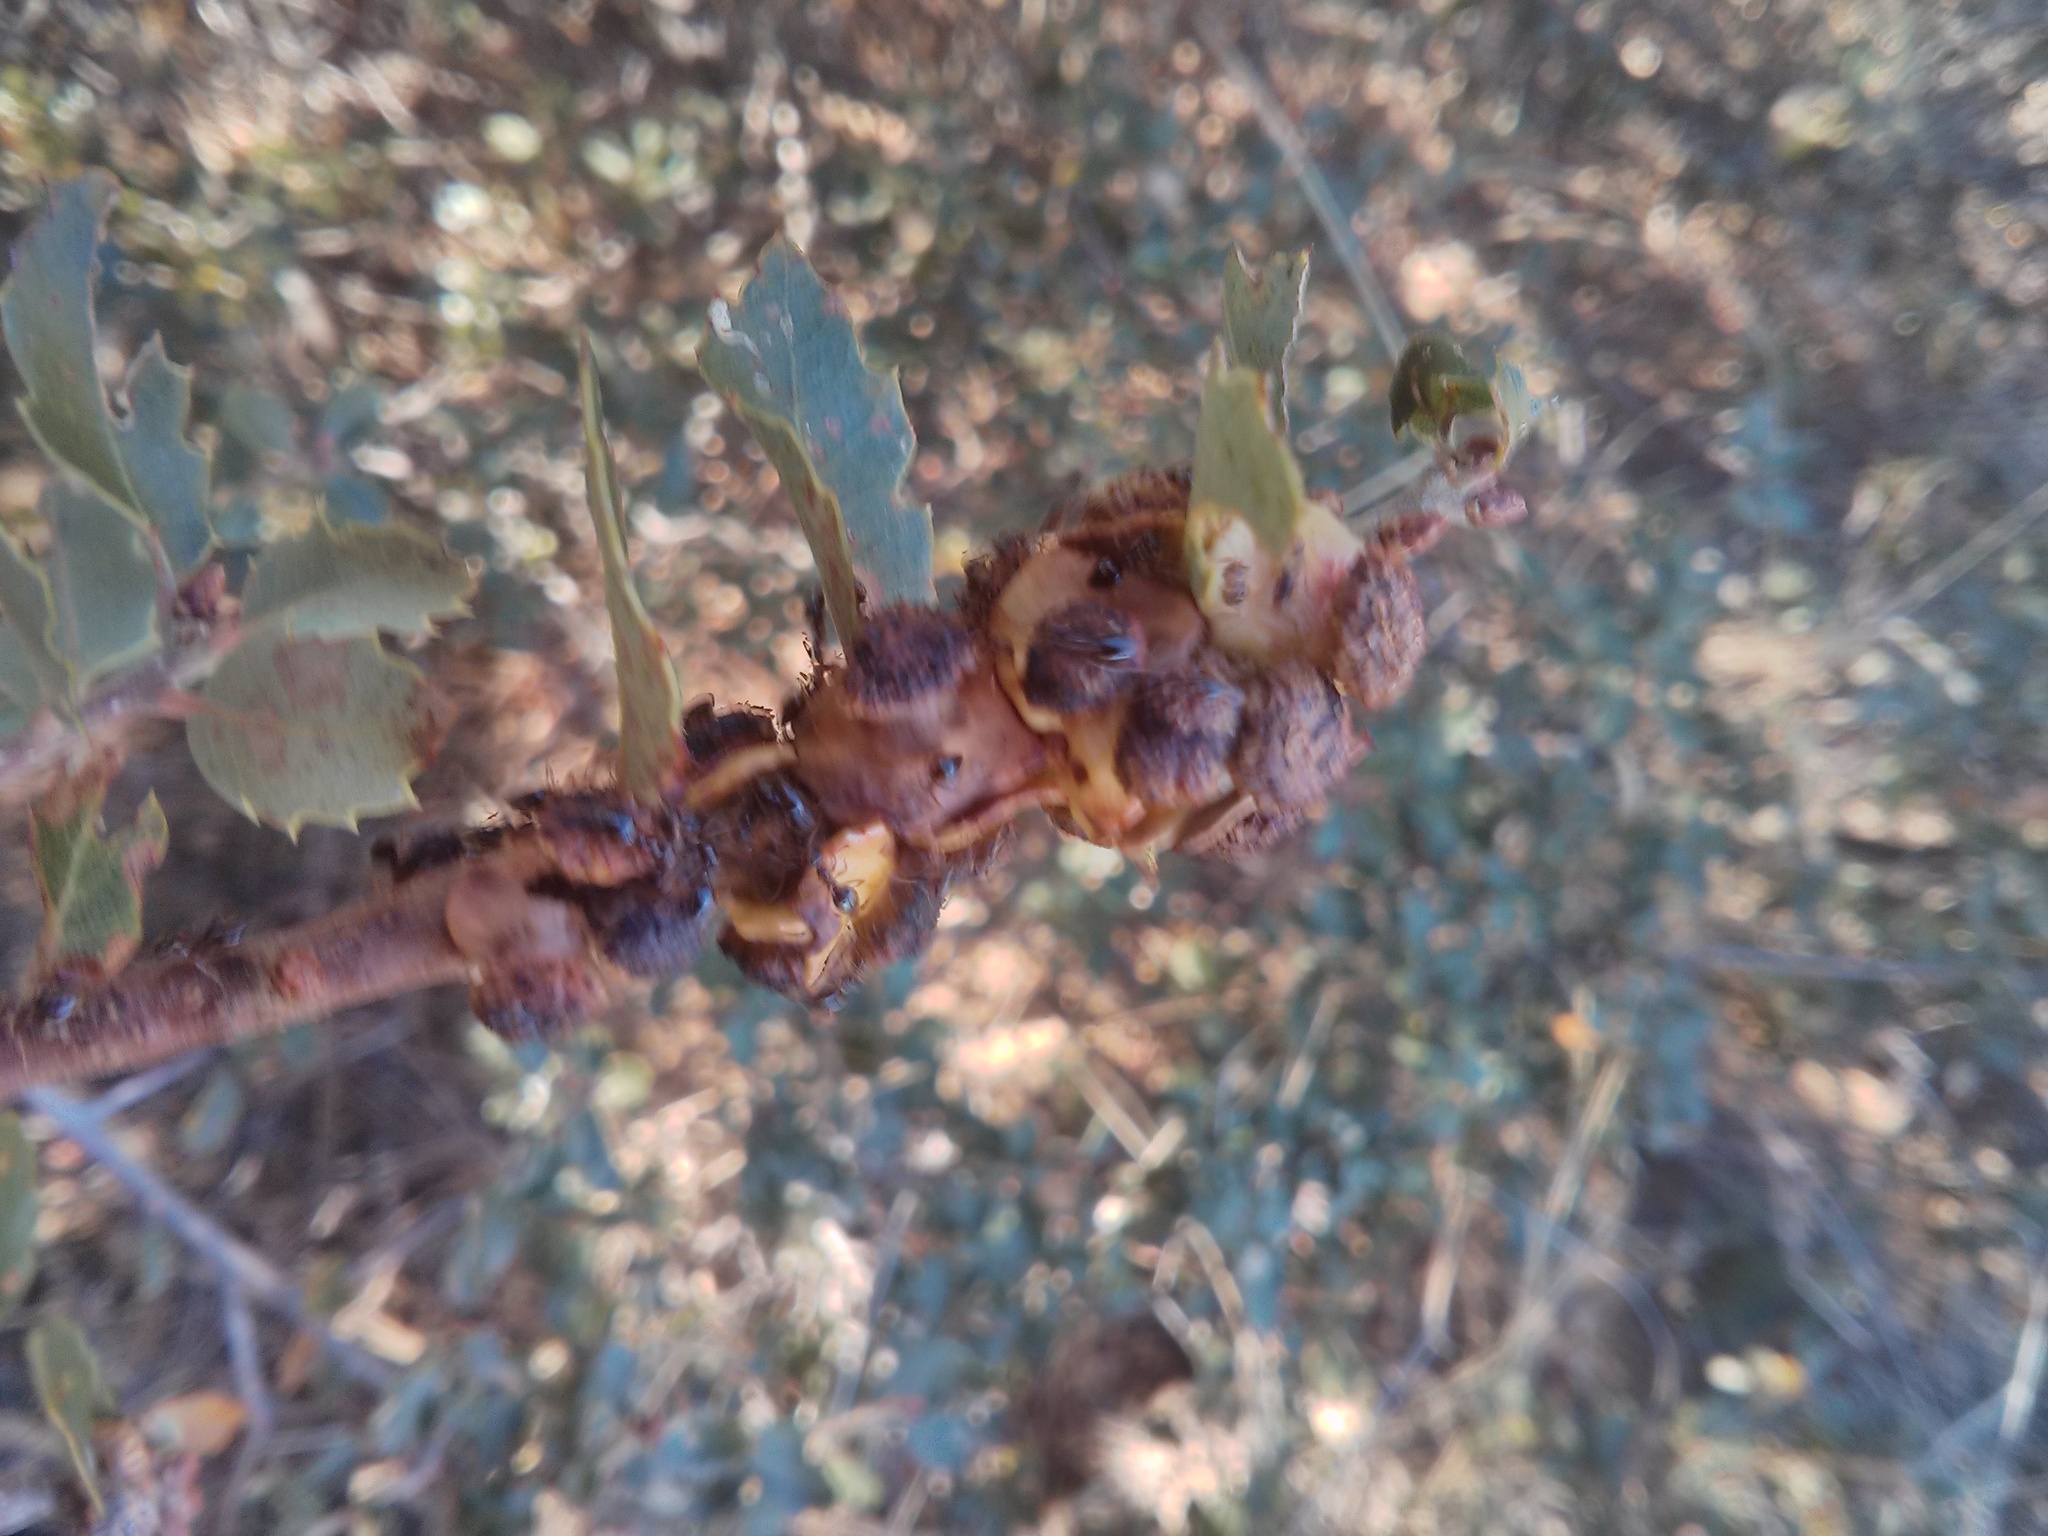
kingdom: Animalia
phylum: Arthropoda
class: Insecta
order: Hymenoptera
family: Cynipidae
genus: Disholcaspis
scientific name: Disholcaspis prehensa
